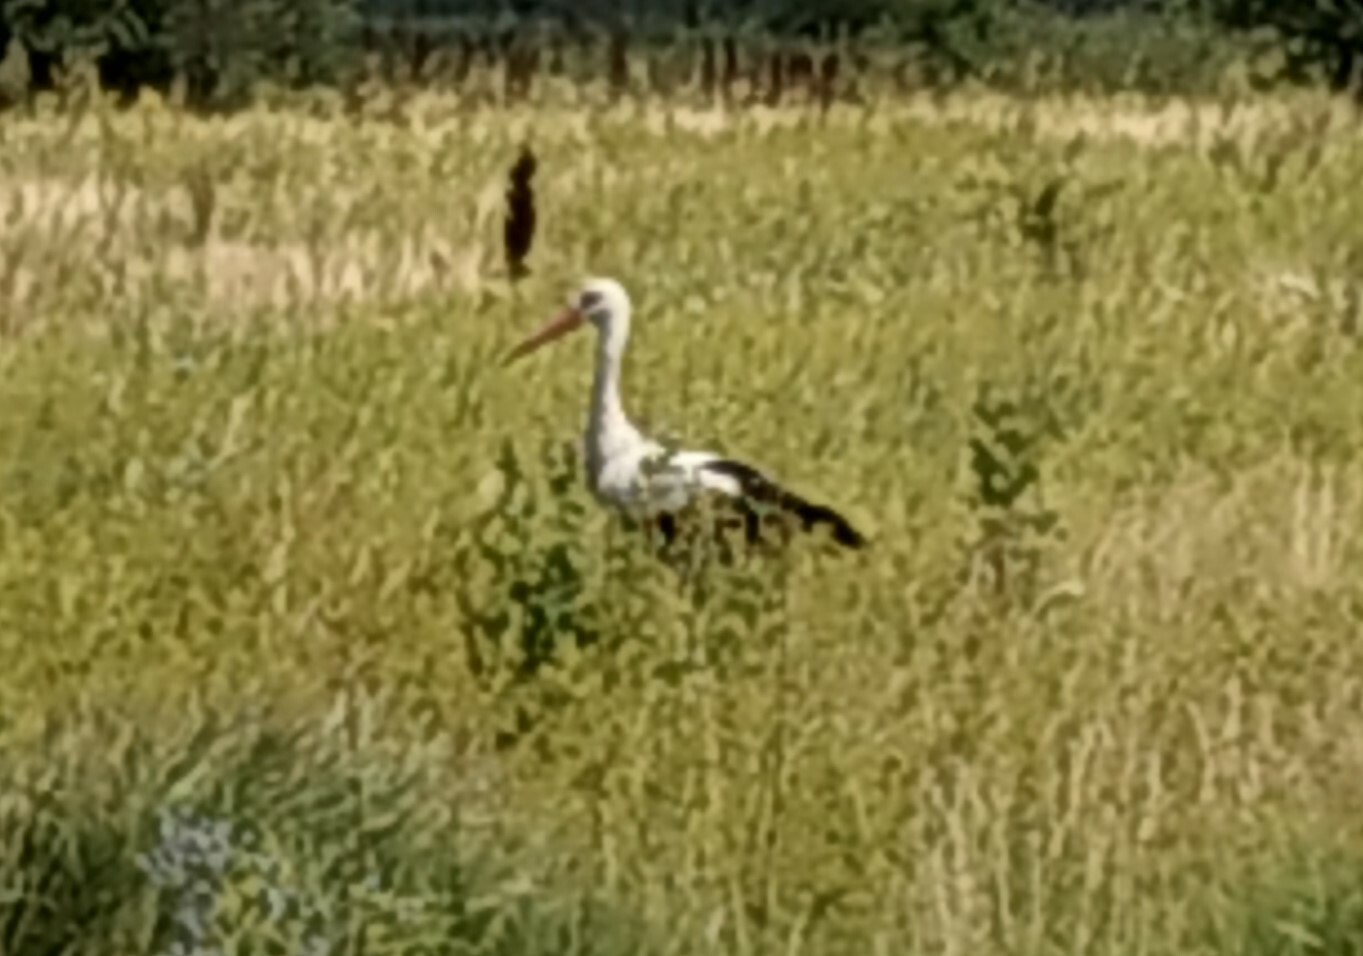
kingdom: Animalia
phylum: Chordata
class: Aves
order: Ciconiiformes
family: Ciconiidae
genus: Ciconia
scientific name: Ciconia ciconia
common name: White stork
